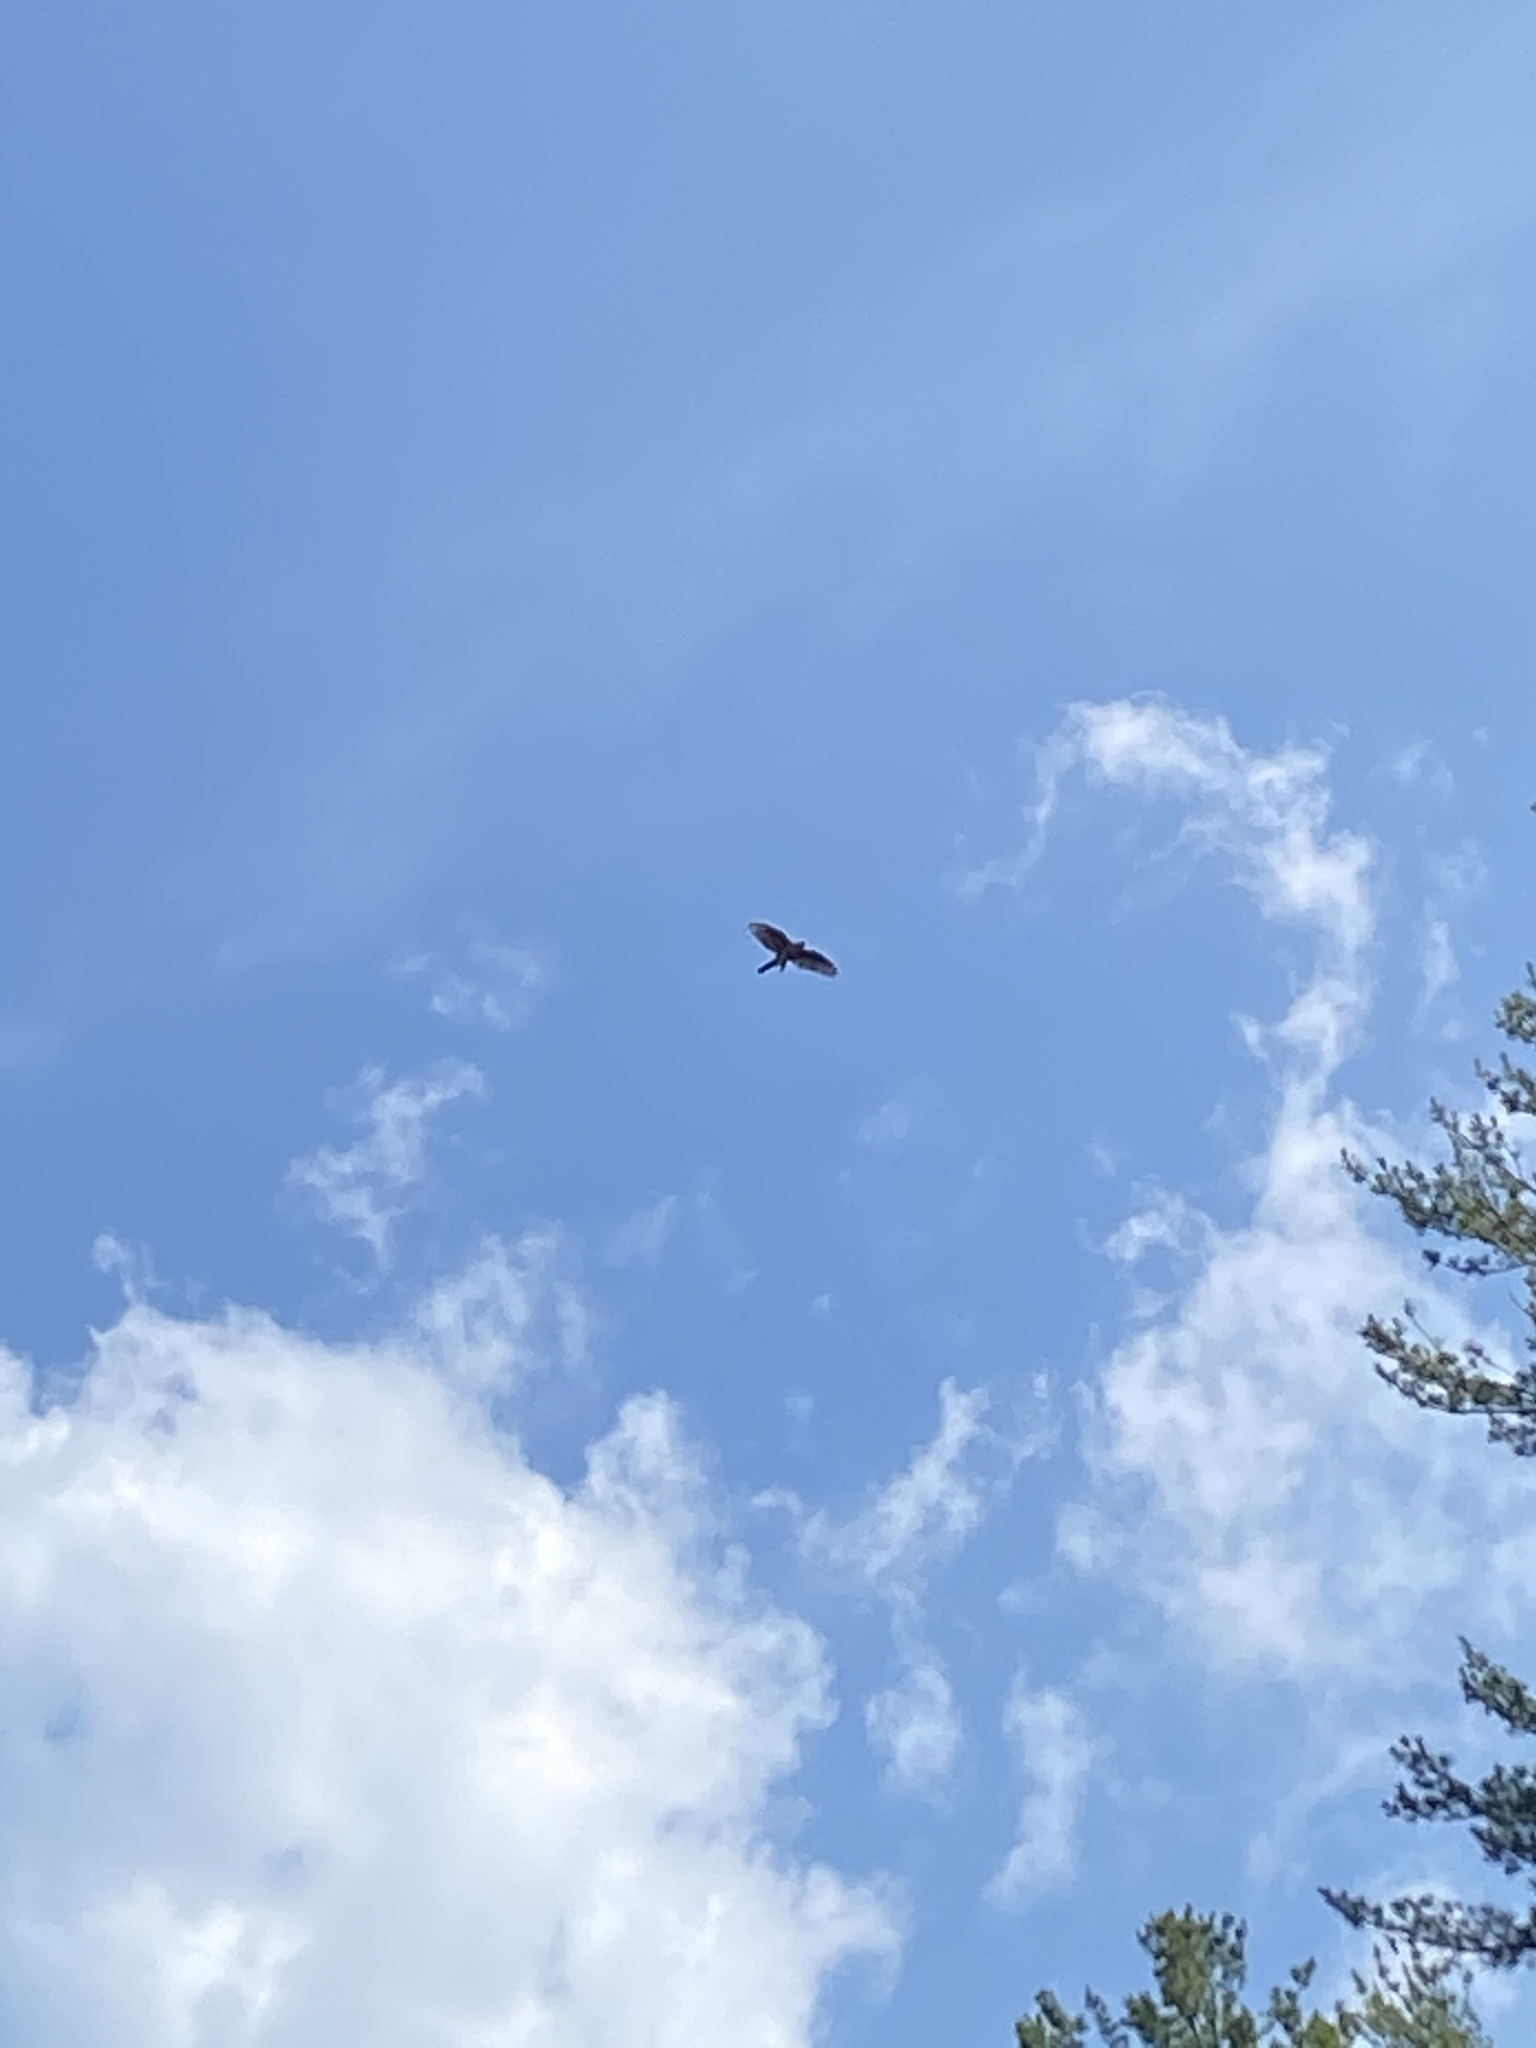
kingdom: Animalia
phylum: Chordata
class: Aves
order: Accipitriformes
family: Accipitridae
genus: Accipiter
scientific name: Accipiter cooperii
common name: Cooper's hawk
